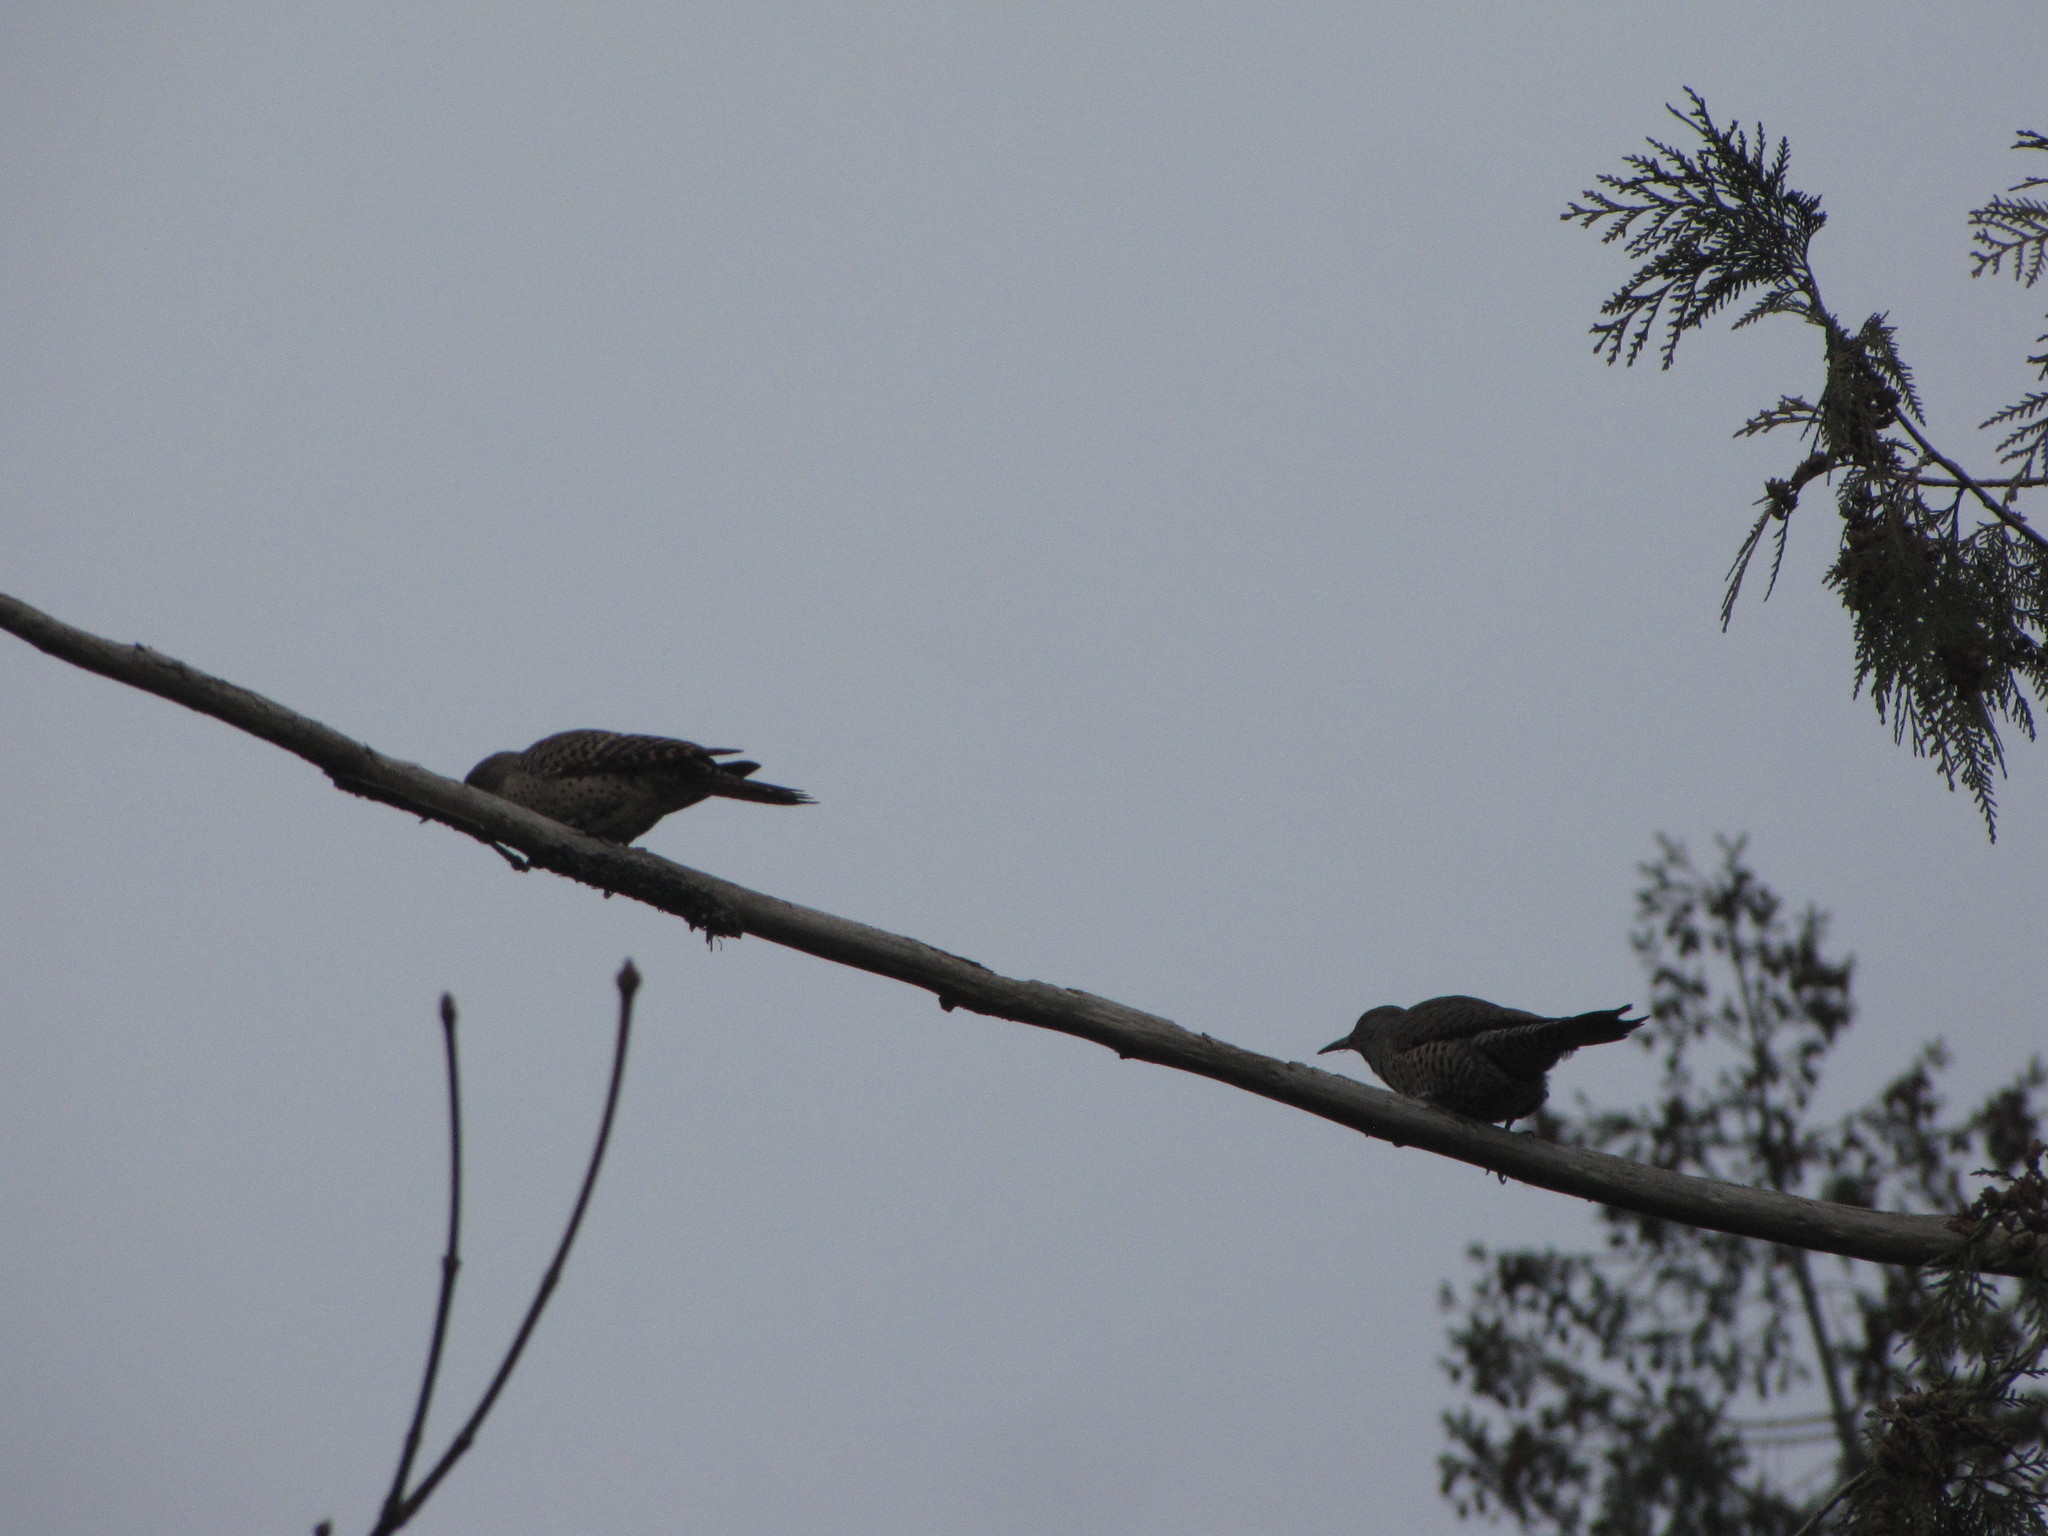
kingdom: Animalia
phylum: Chordata
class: Aves
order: Piciformes
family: Picidae
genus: Colaptes
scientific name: Colaptes auratus
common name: Northern flicker
